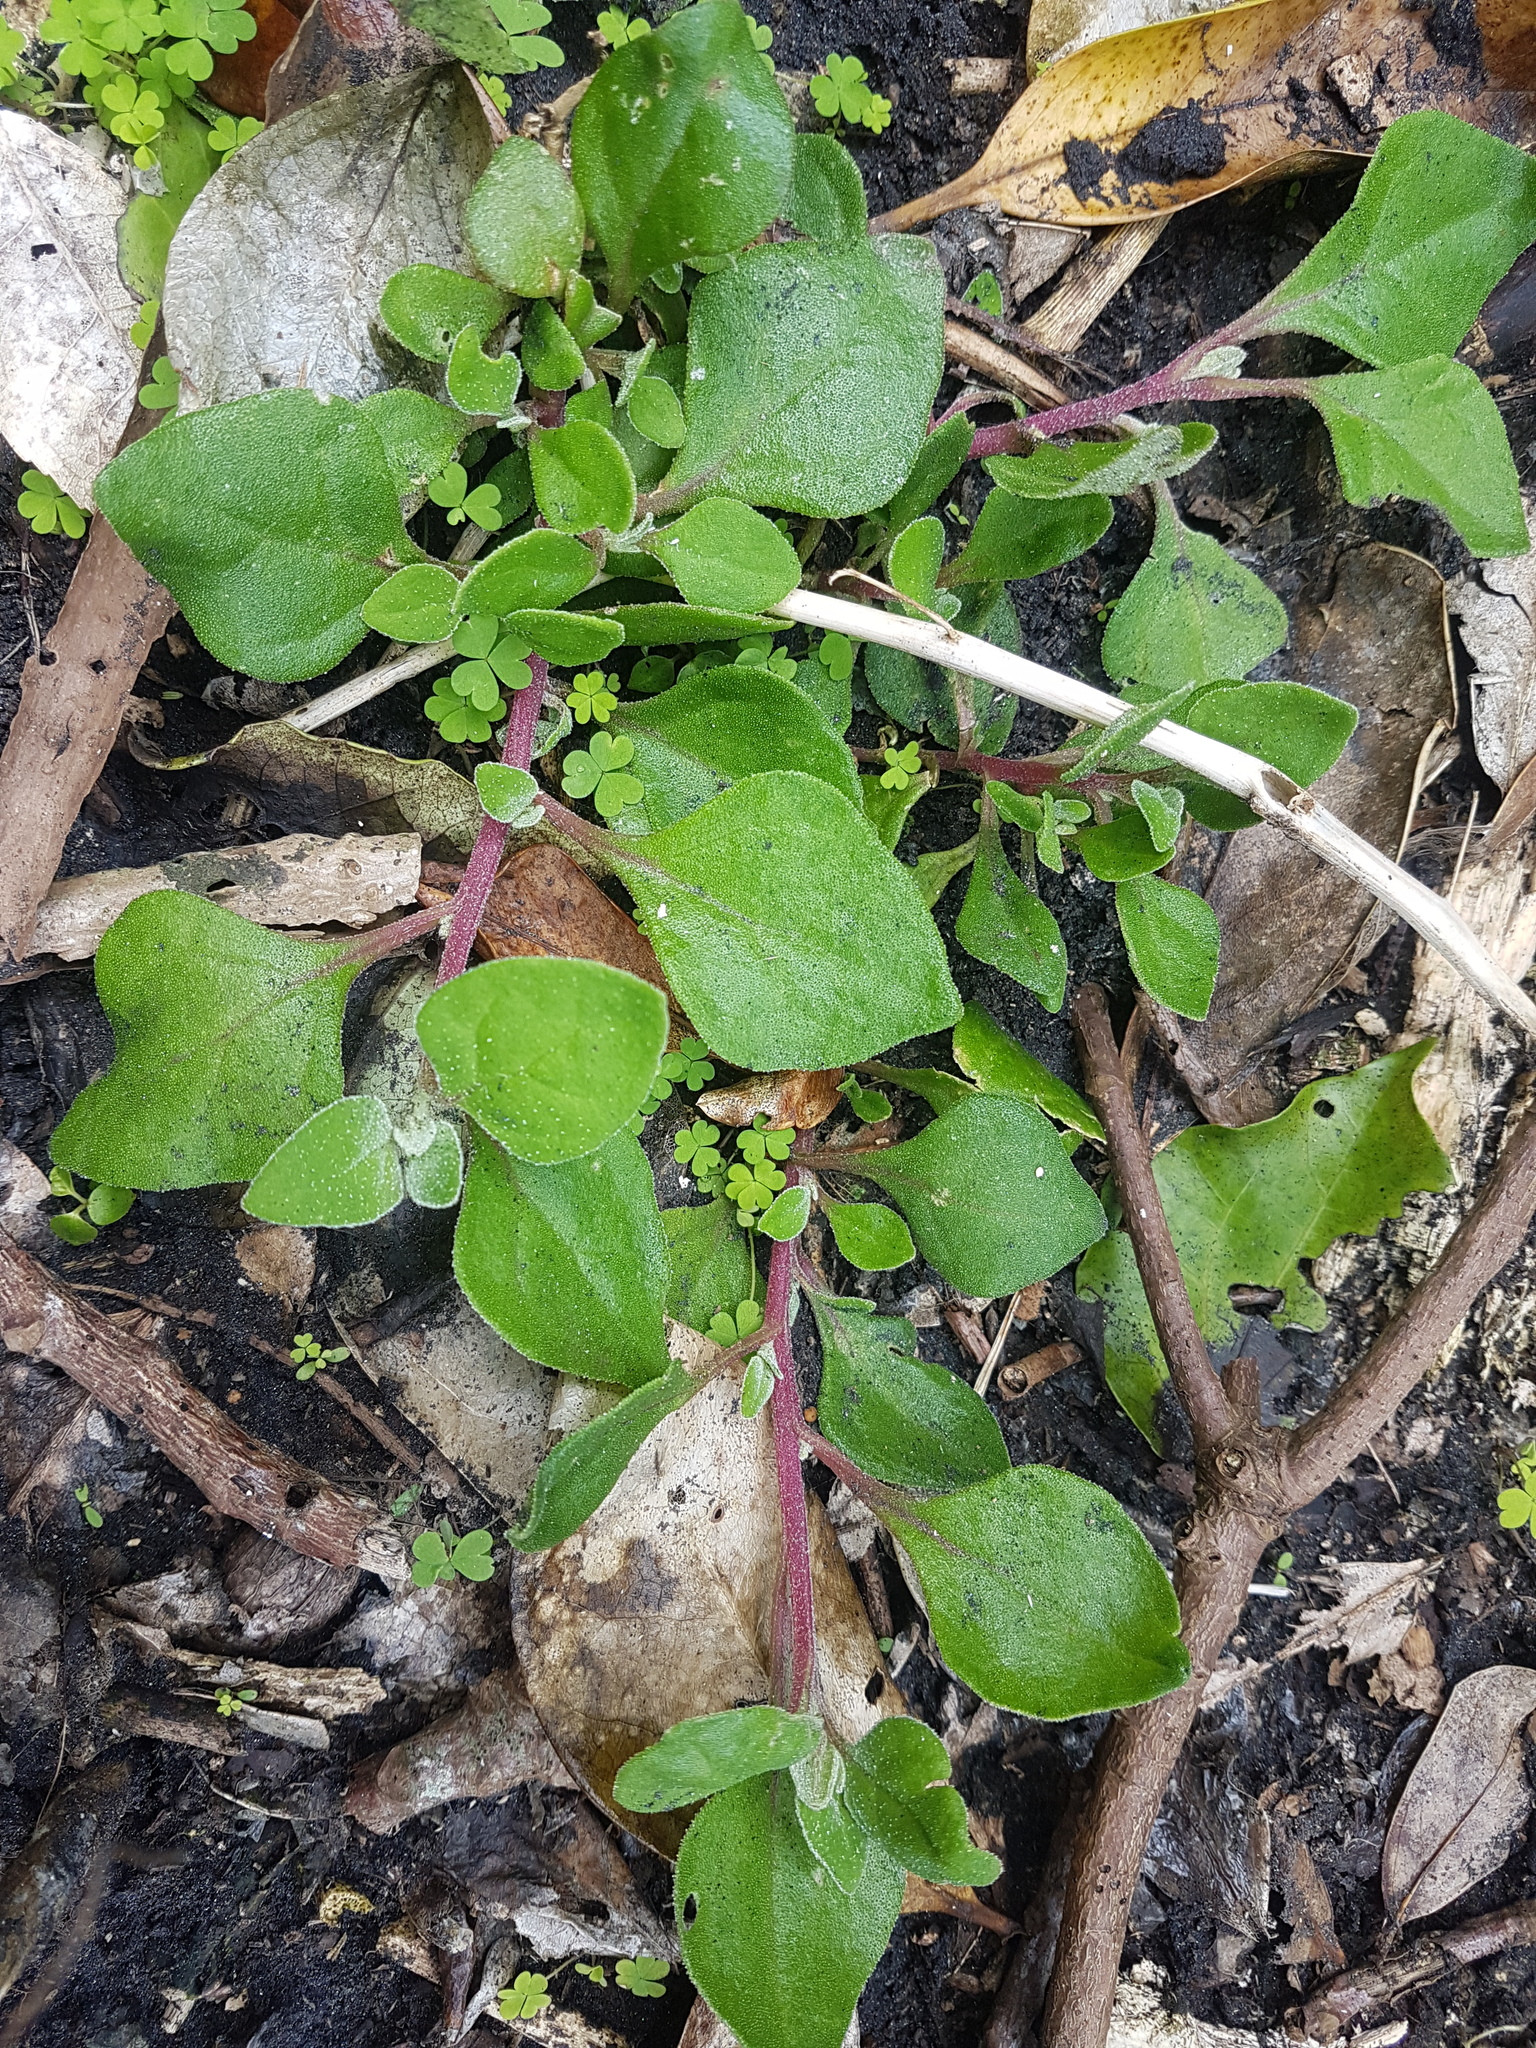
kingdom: Plantae
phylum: Tracheophyta
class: Magnoliopsida
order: Caryophyllales
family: Aizoaceae
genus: Tetragonia
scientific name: Tetragonia implexicoma
